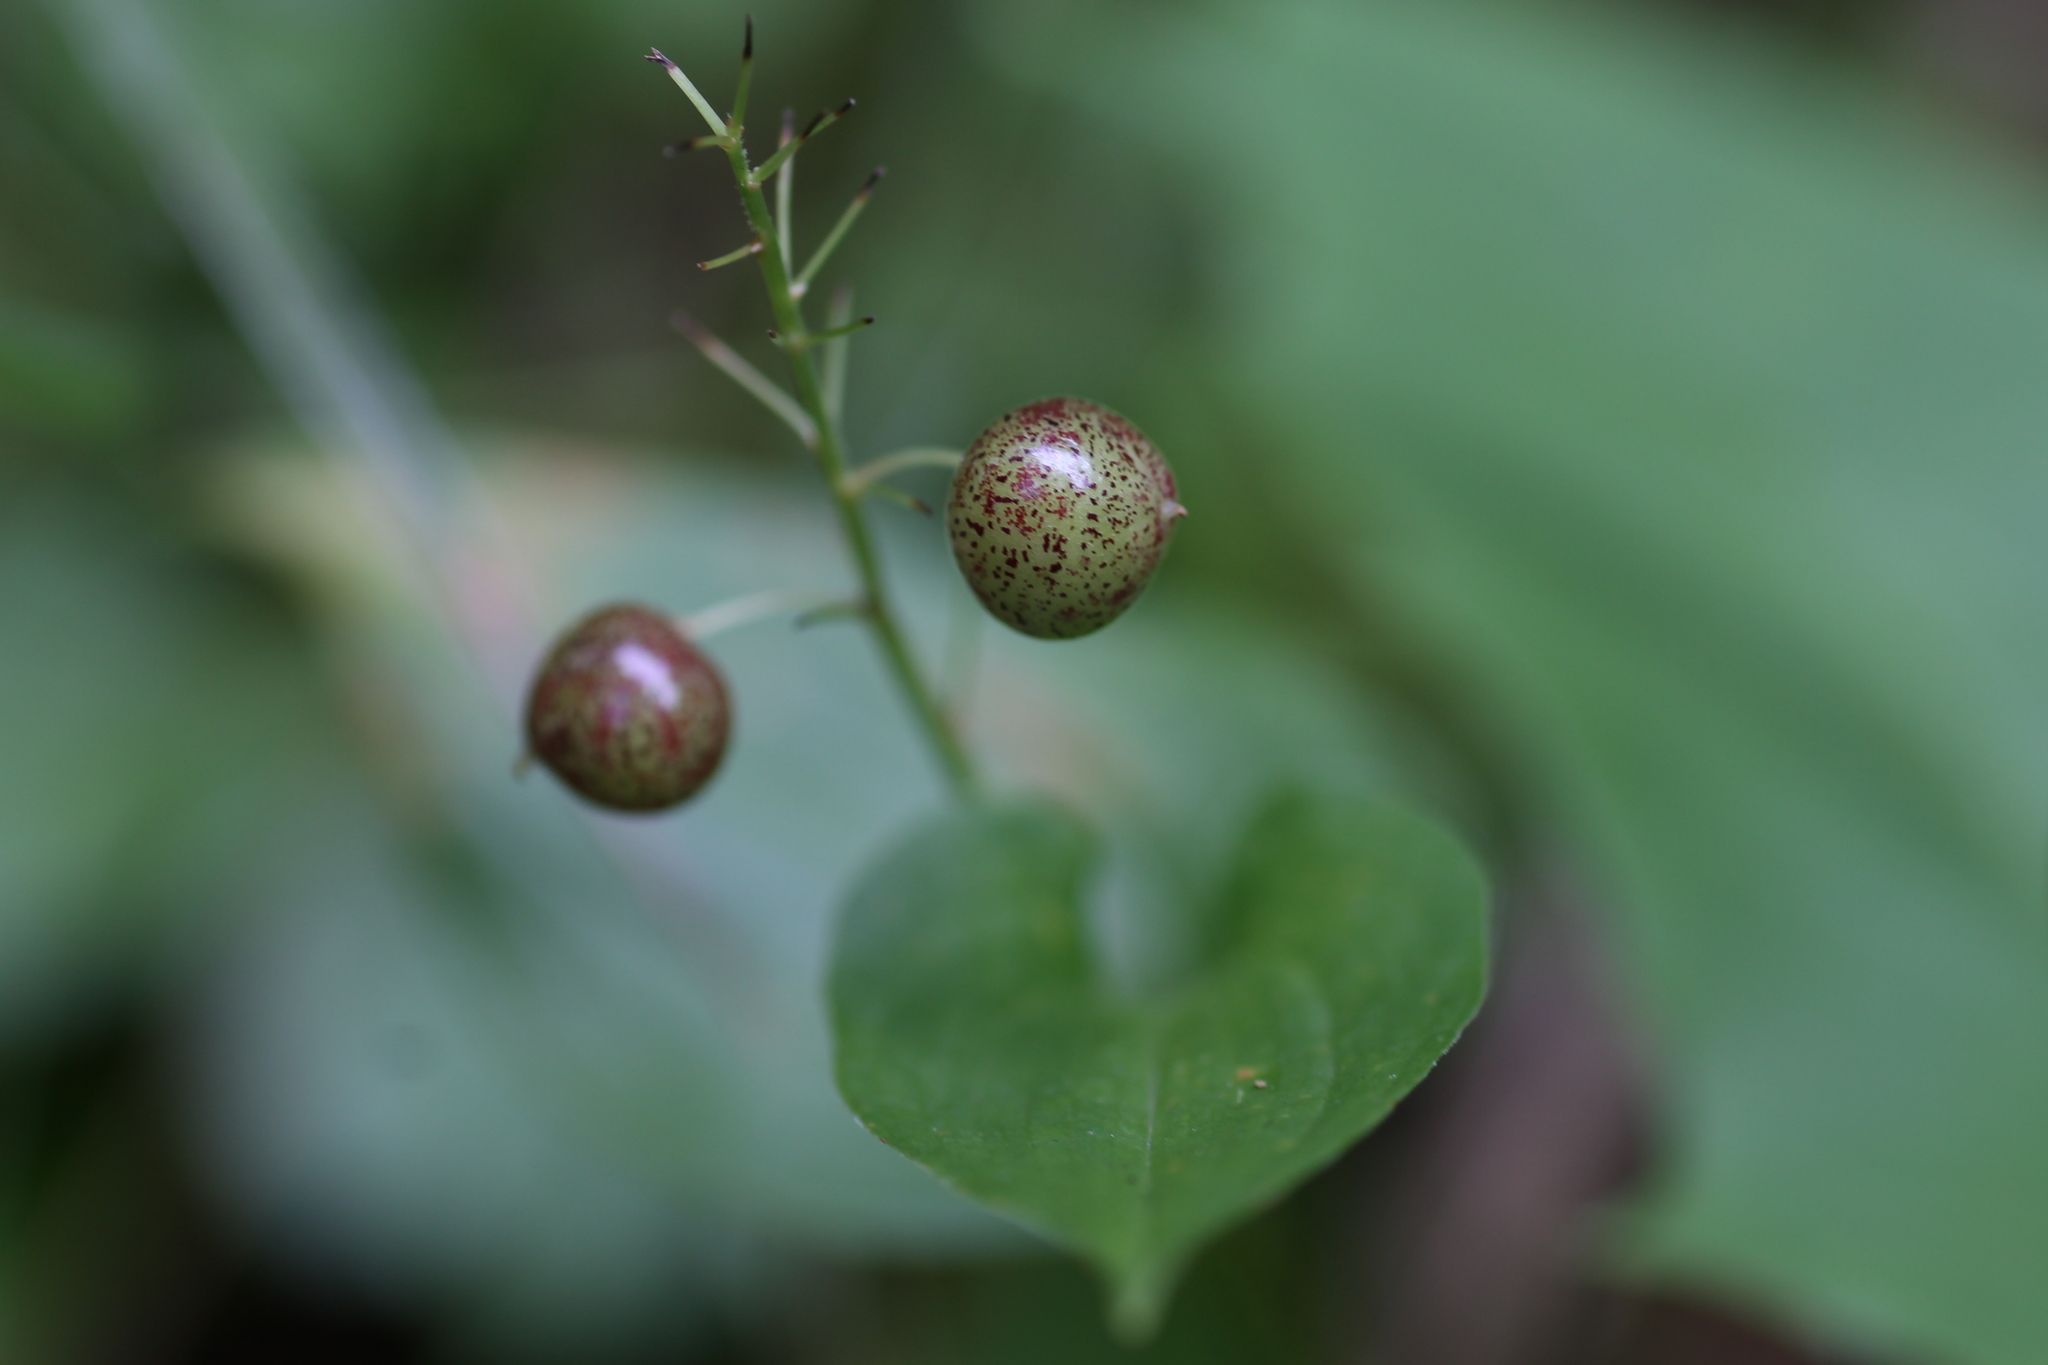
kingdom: Plantae
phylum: Tracheophyta
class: Liliopsida
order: Asparagales
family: Asparagaceae
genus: Maianthemum
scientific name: Maianthemum bifolium
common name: May lily
